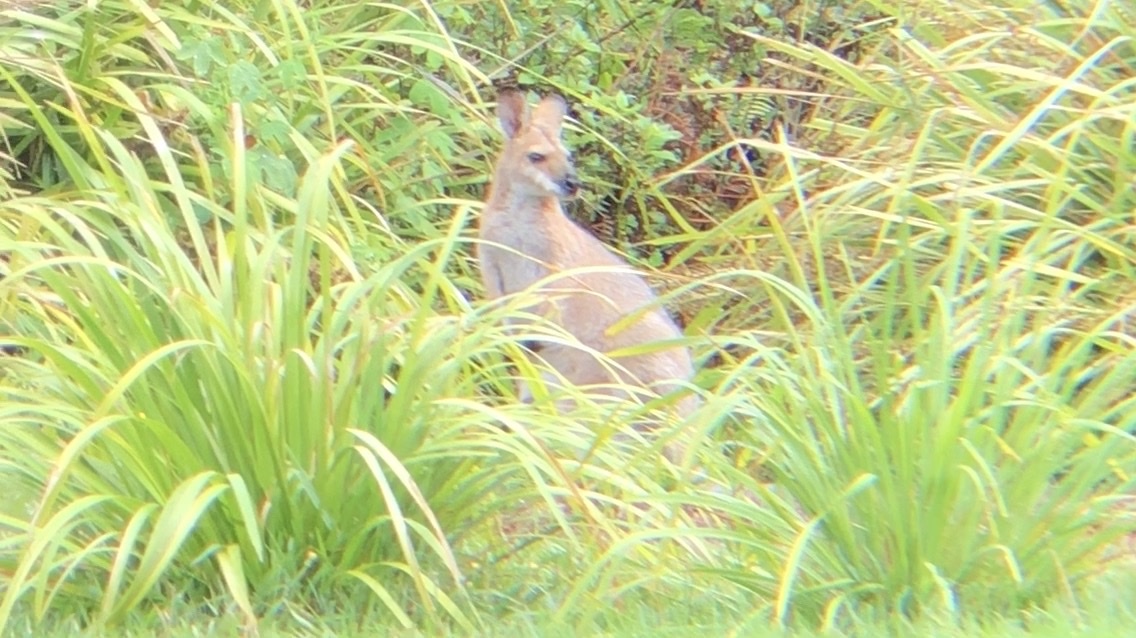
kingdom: Animalia
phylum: Chordata
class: Mammalia
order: Diprotodontia
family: Macropodidae
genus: Notamacropus
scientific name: Notamacropus rufogriseus
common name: Red-necked wallaby
